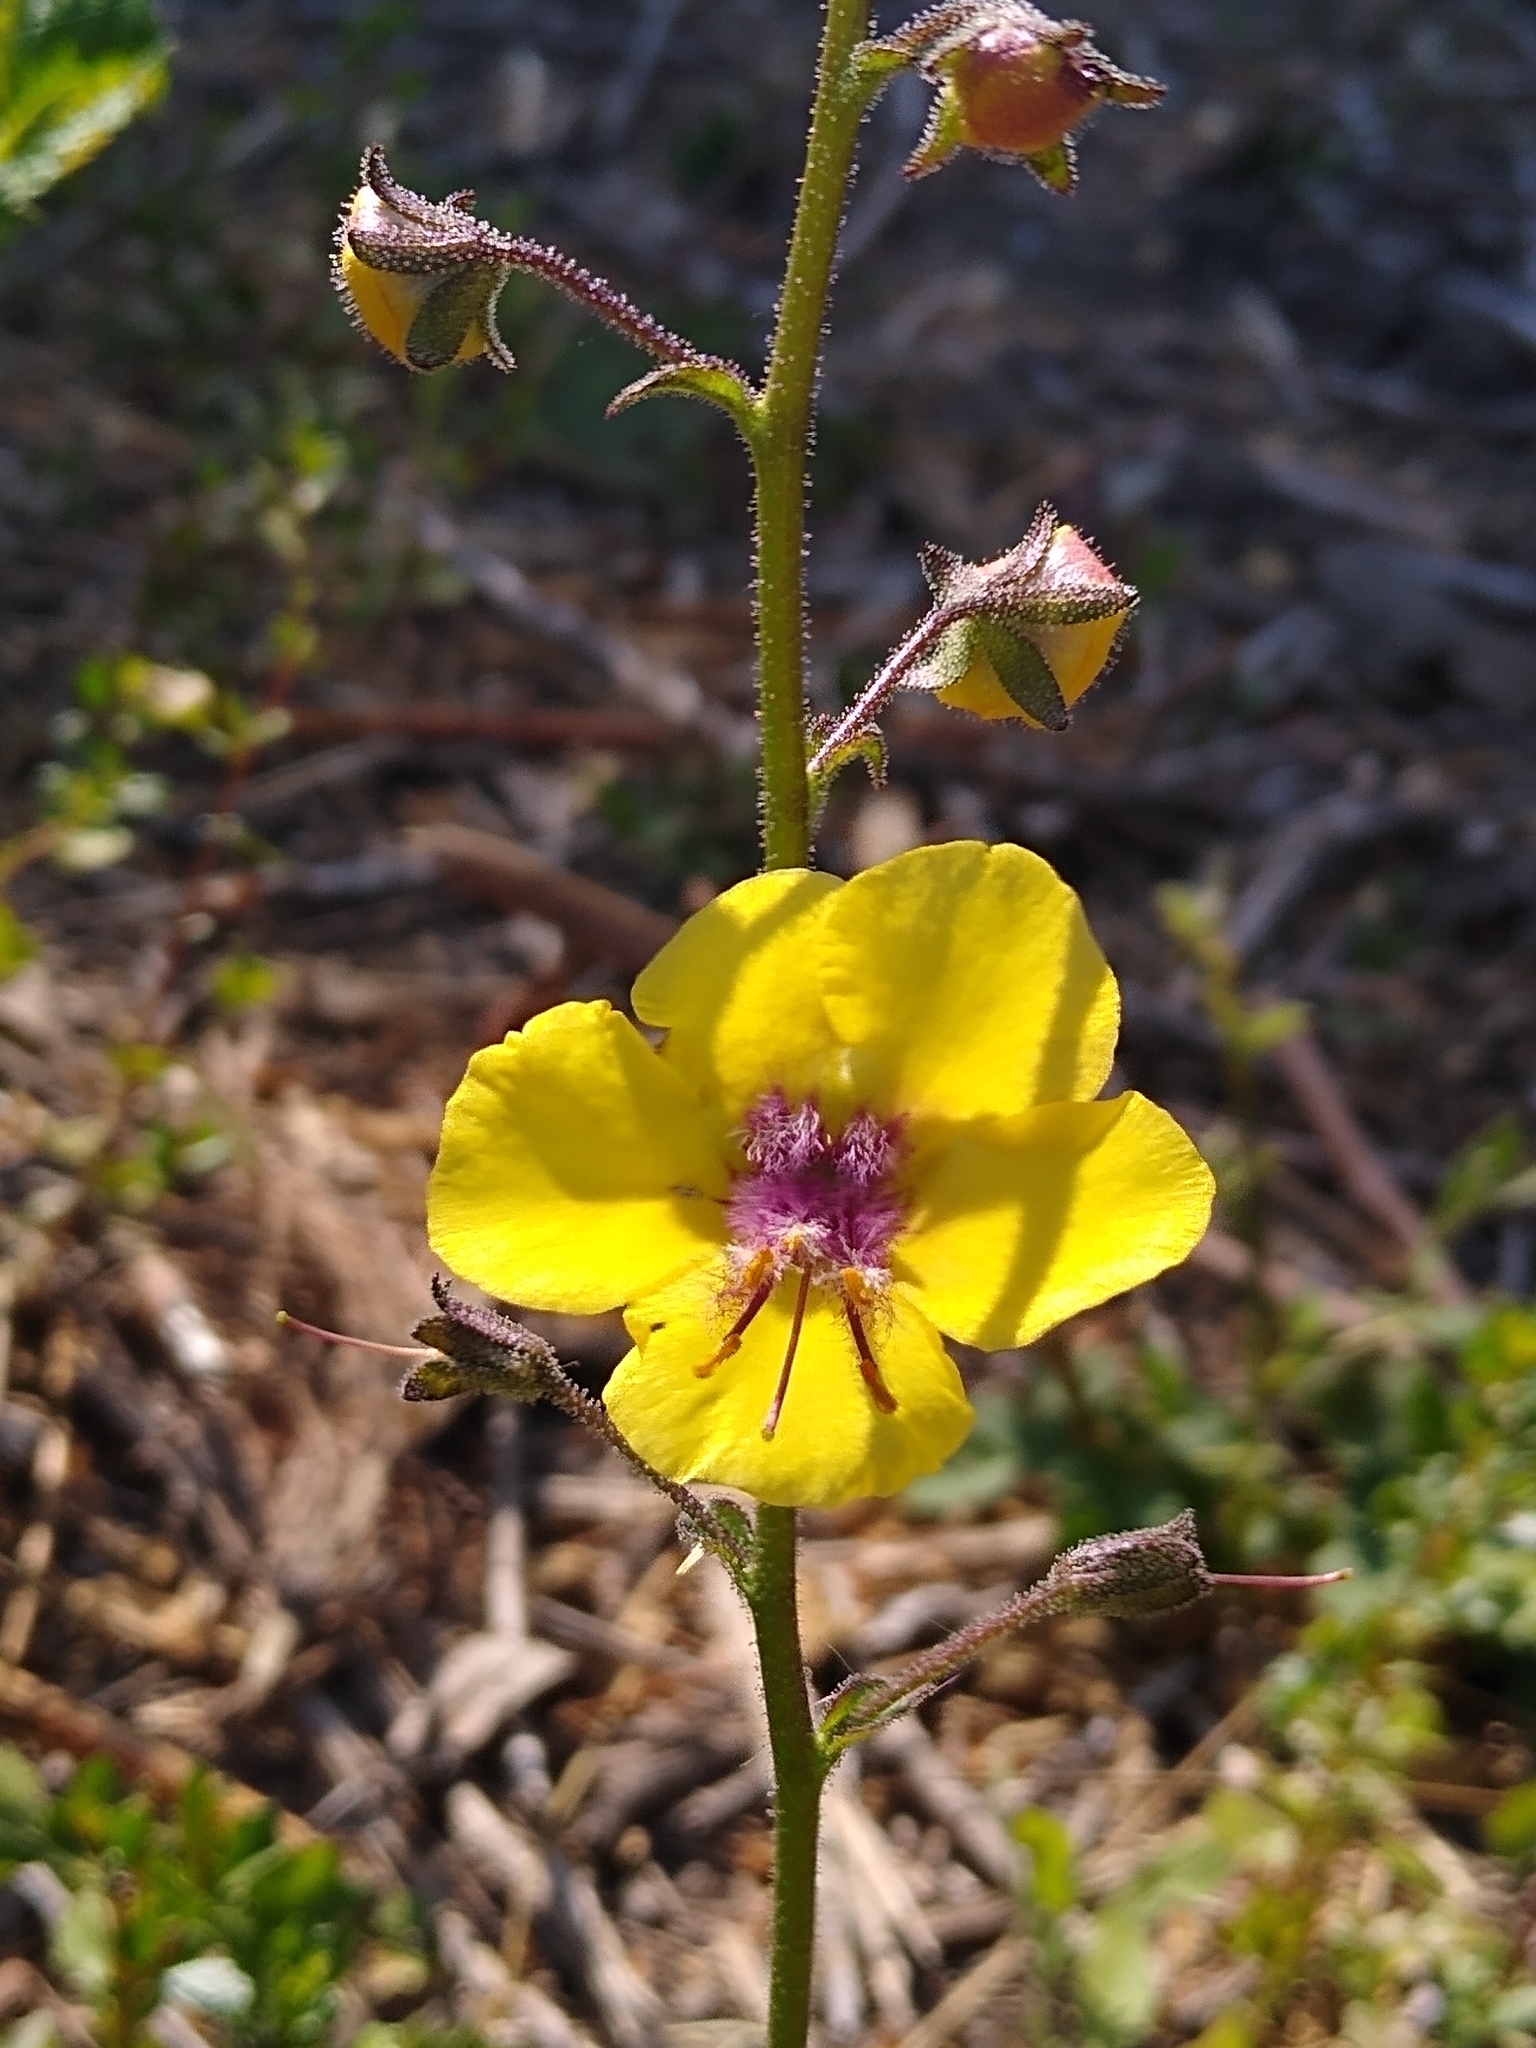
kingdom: Plantae
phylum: Tracheophyta
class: Magnoliopsida
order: Lamiales
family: Scrophulariaceae
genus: Verbascum
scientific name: Verbascum blattaria
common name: Moth mullein
